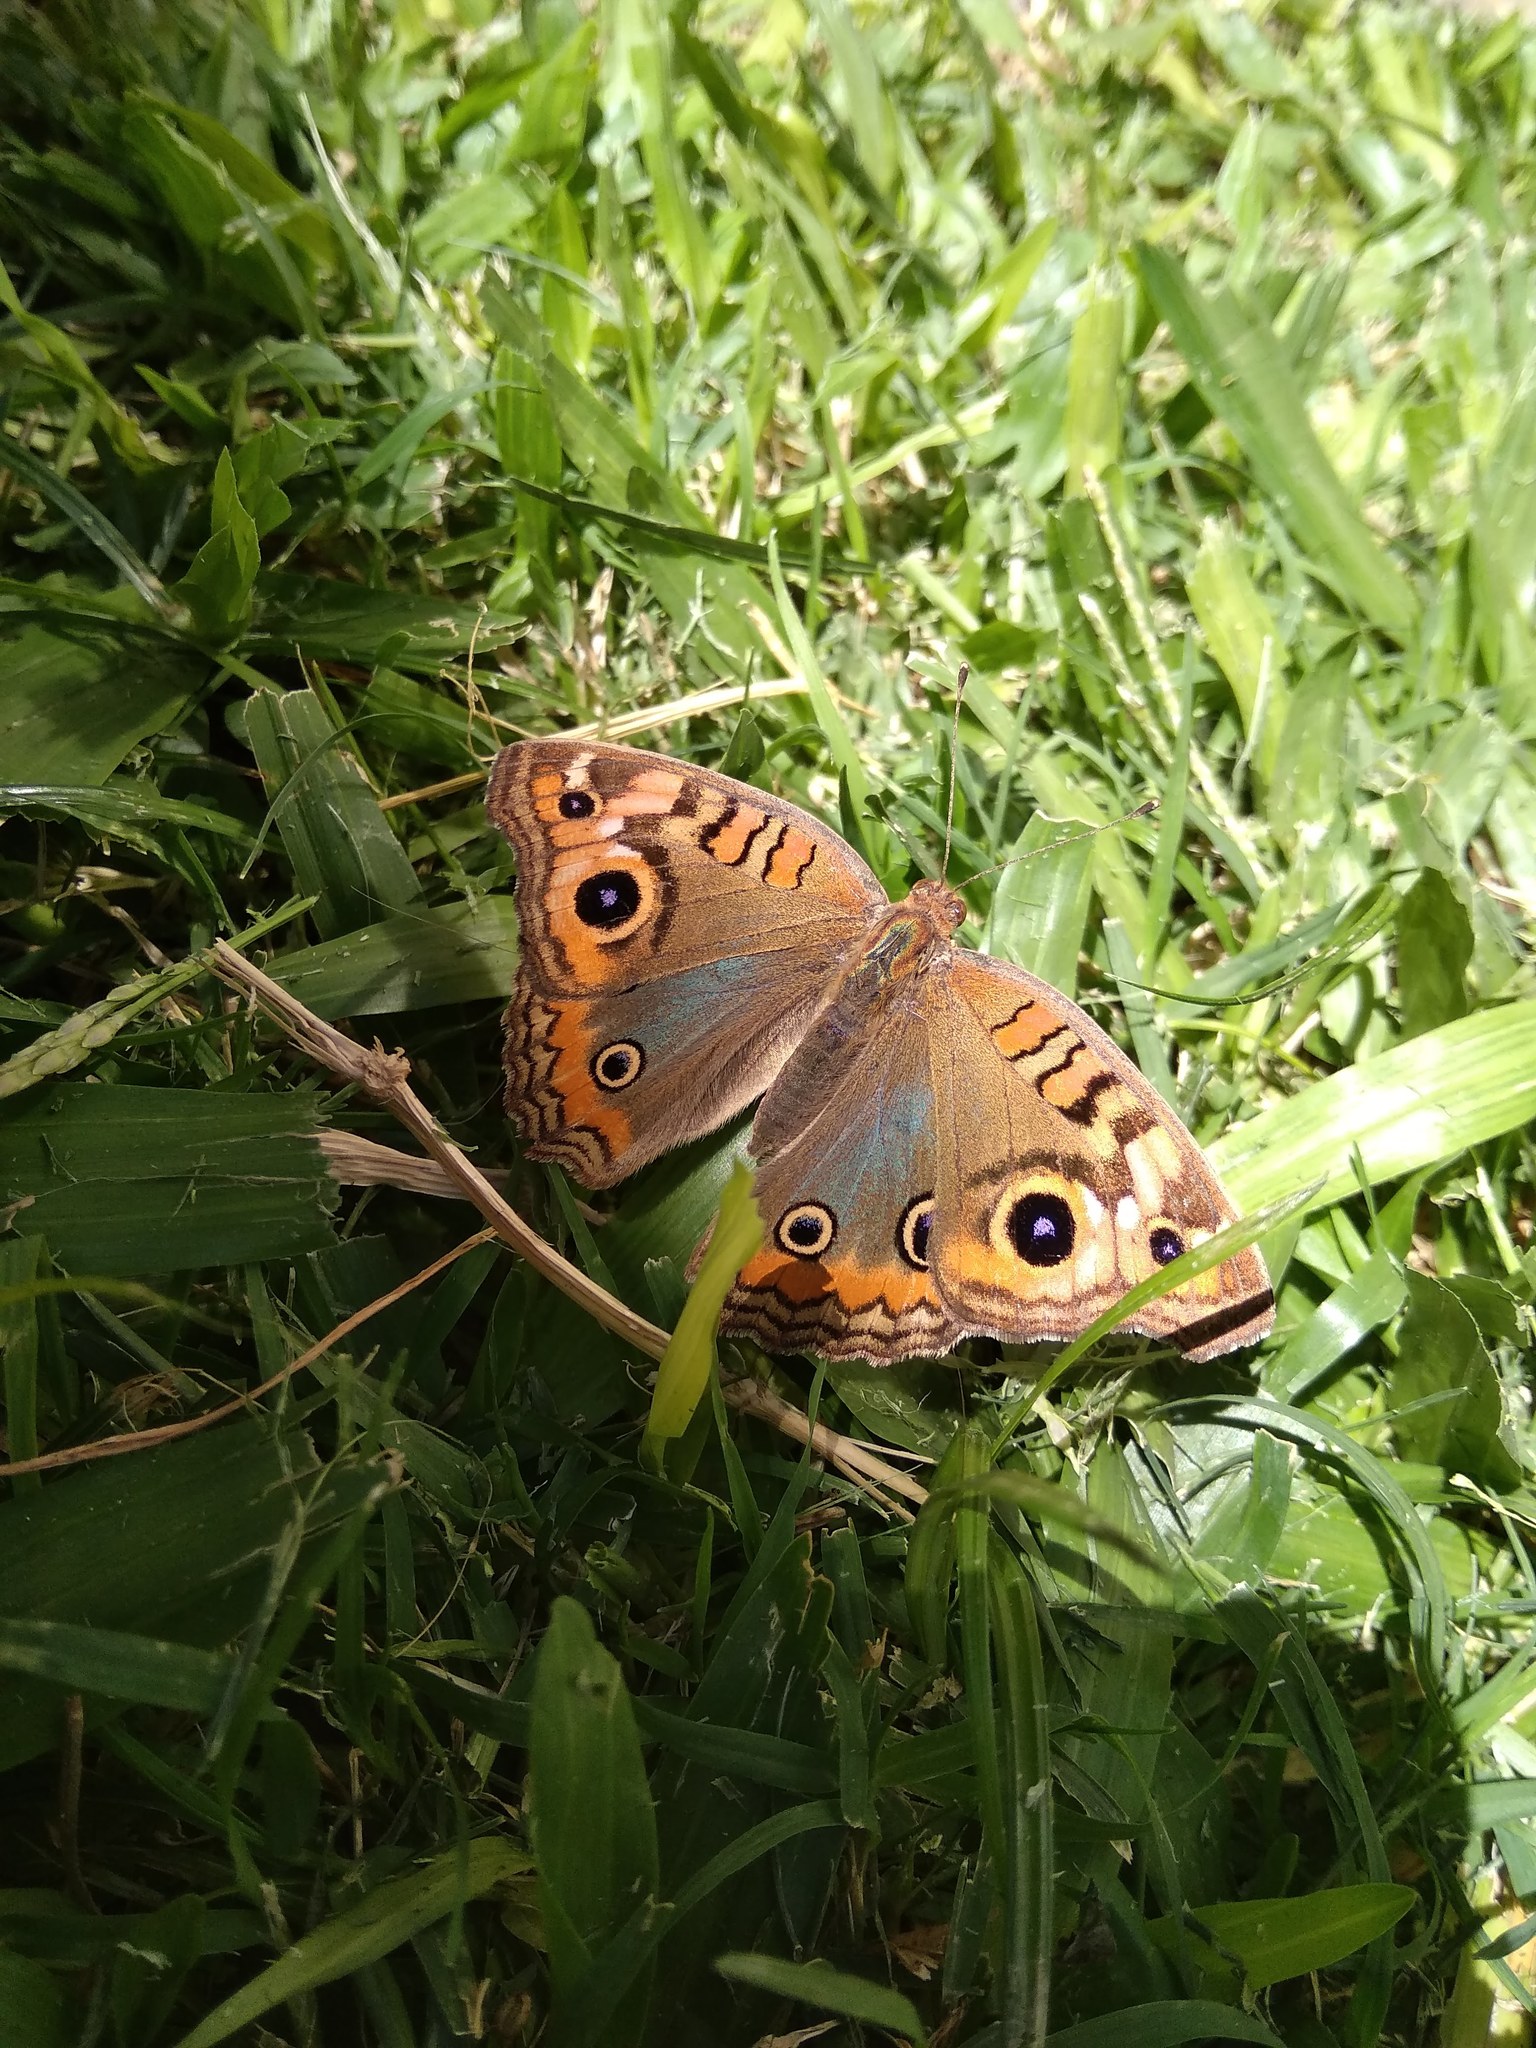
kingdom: Animalia
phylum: Arthropoda
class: Insecta
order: Lepidoptera
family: Nymphalidae
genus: Junonia
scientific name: Junonia lavinia
